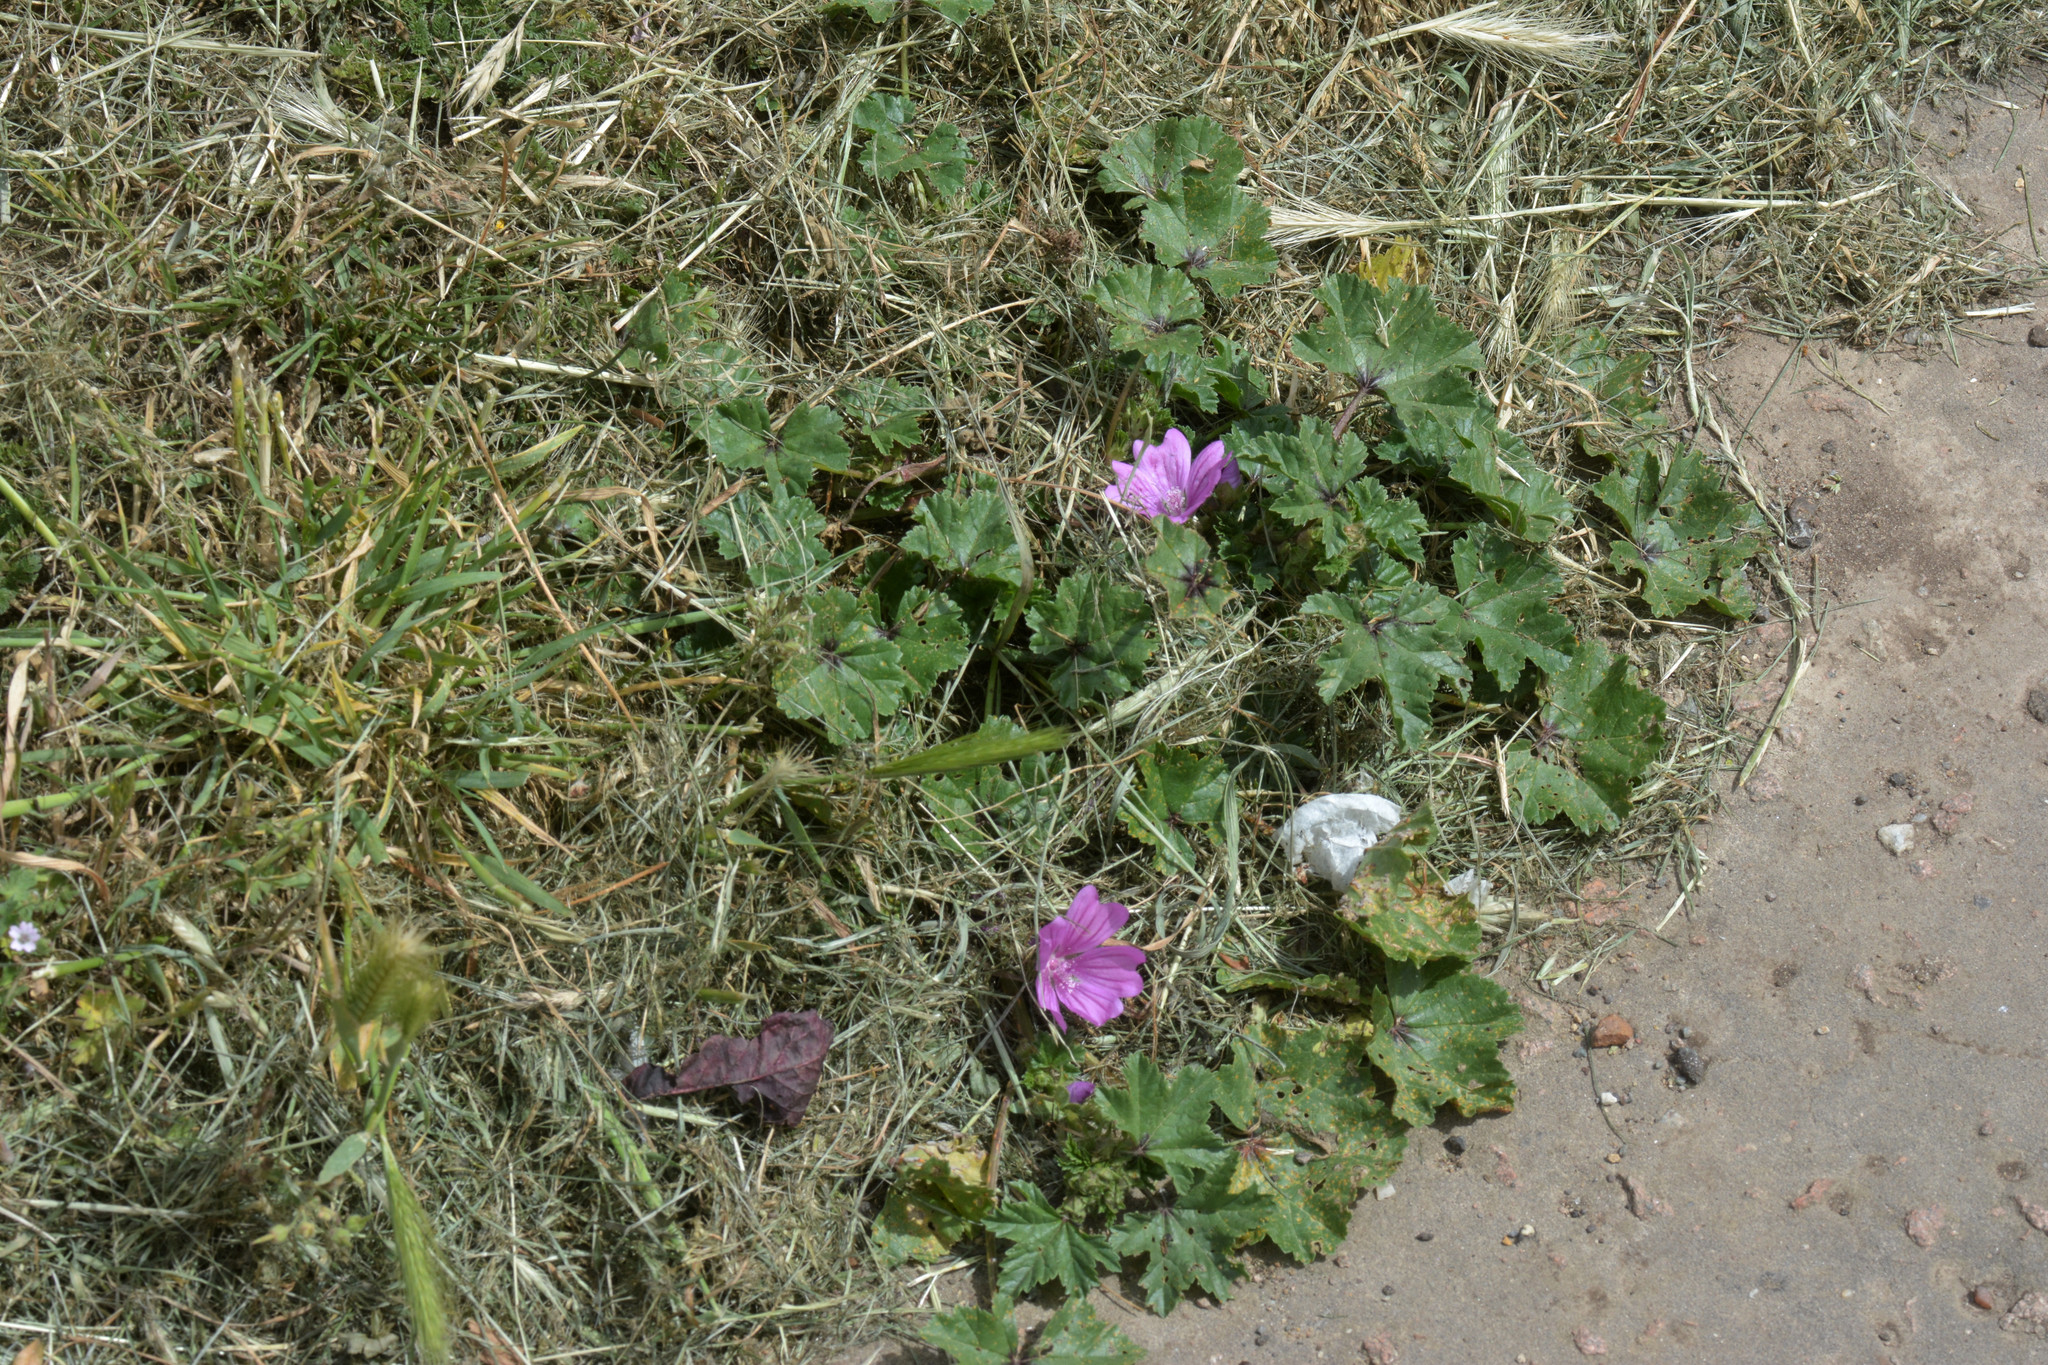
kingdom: Plantae
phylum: Tracheophyta
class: Magnoliopsida
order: Malvales
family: Malvaceae
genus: Malva
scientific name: Malva sylvestris
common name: Common mallow
